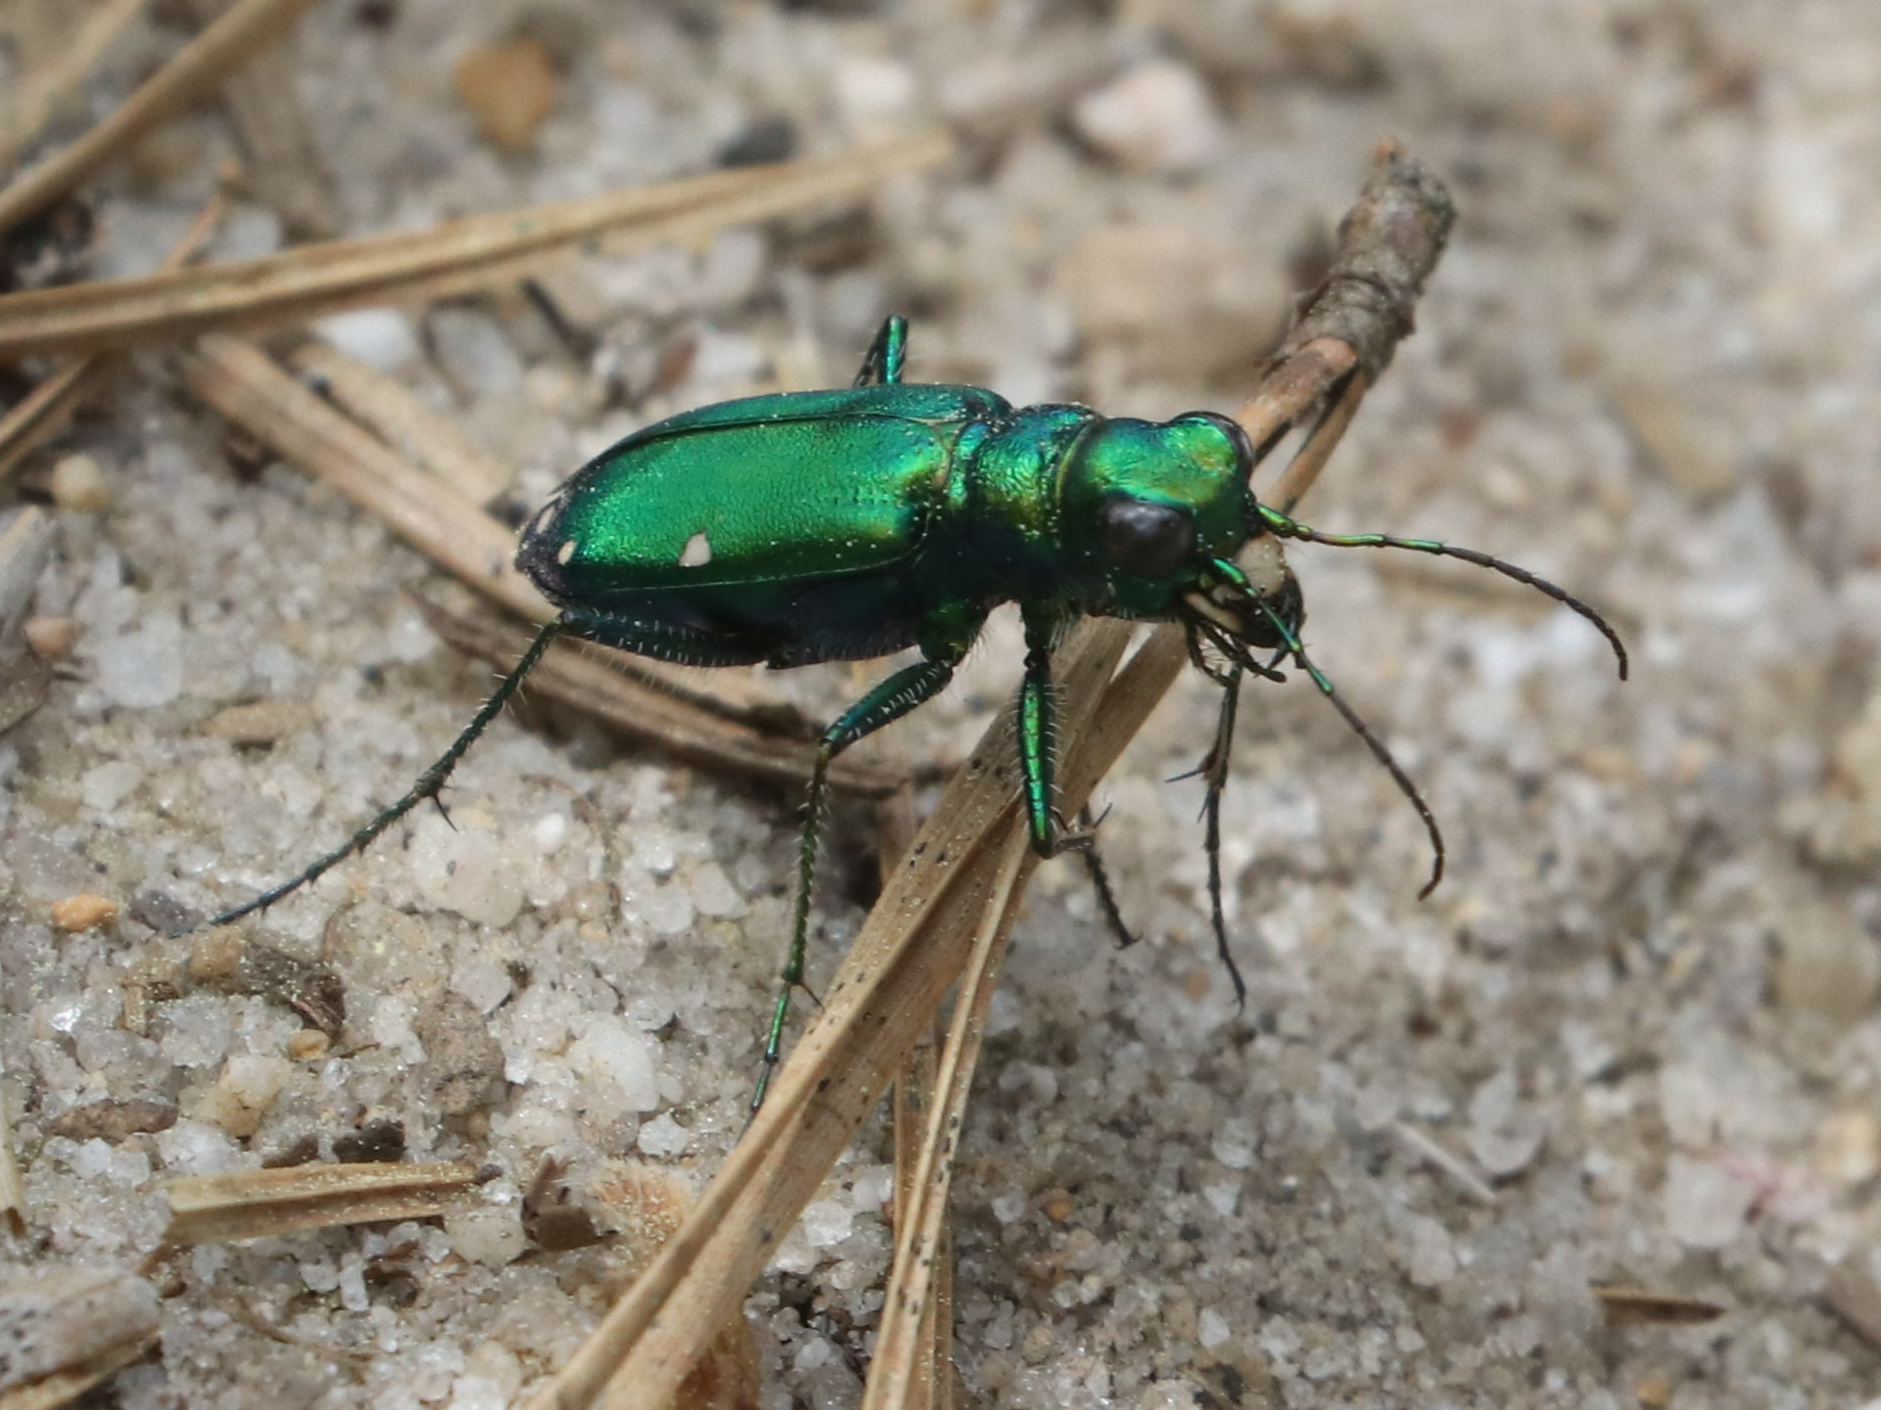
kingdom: Animalia
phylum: Arthropoda
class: Insecta
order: Coleoptera
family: Carabidae
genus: Cicindela
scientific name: Cicindela sexguttata
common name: Six-spotted tiger beetle
